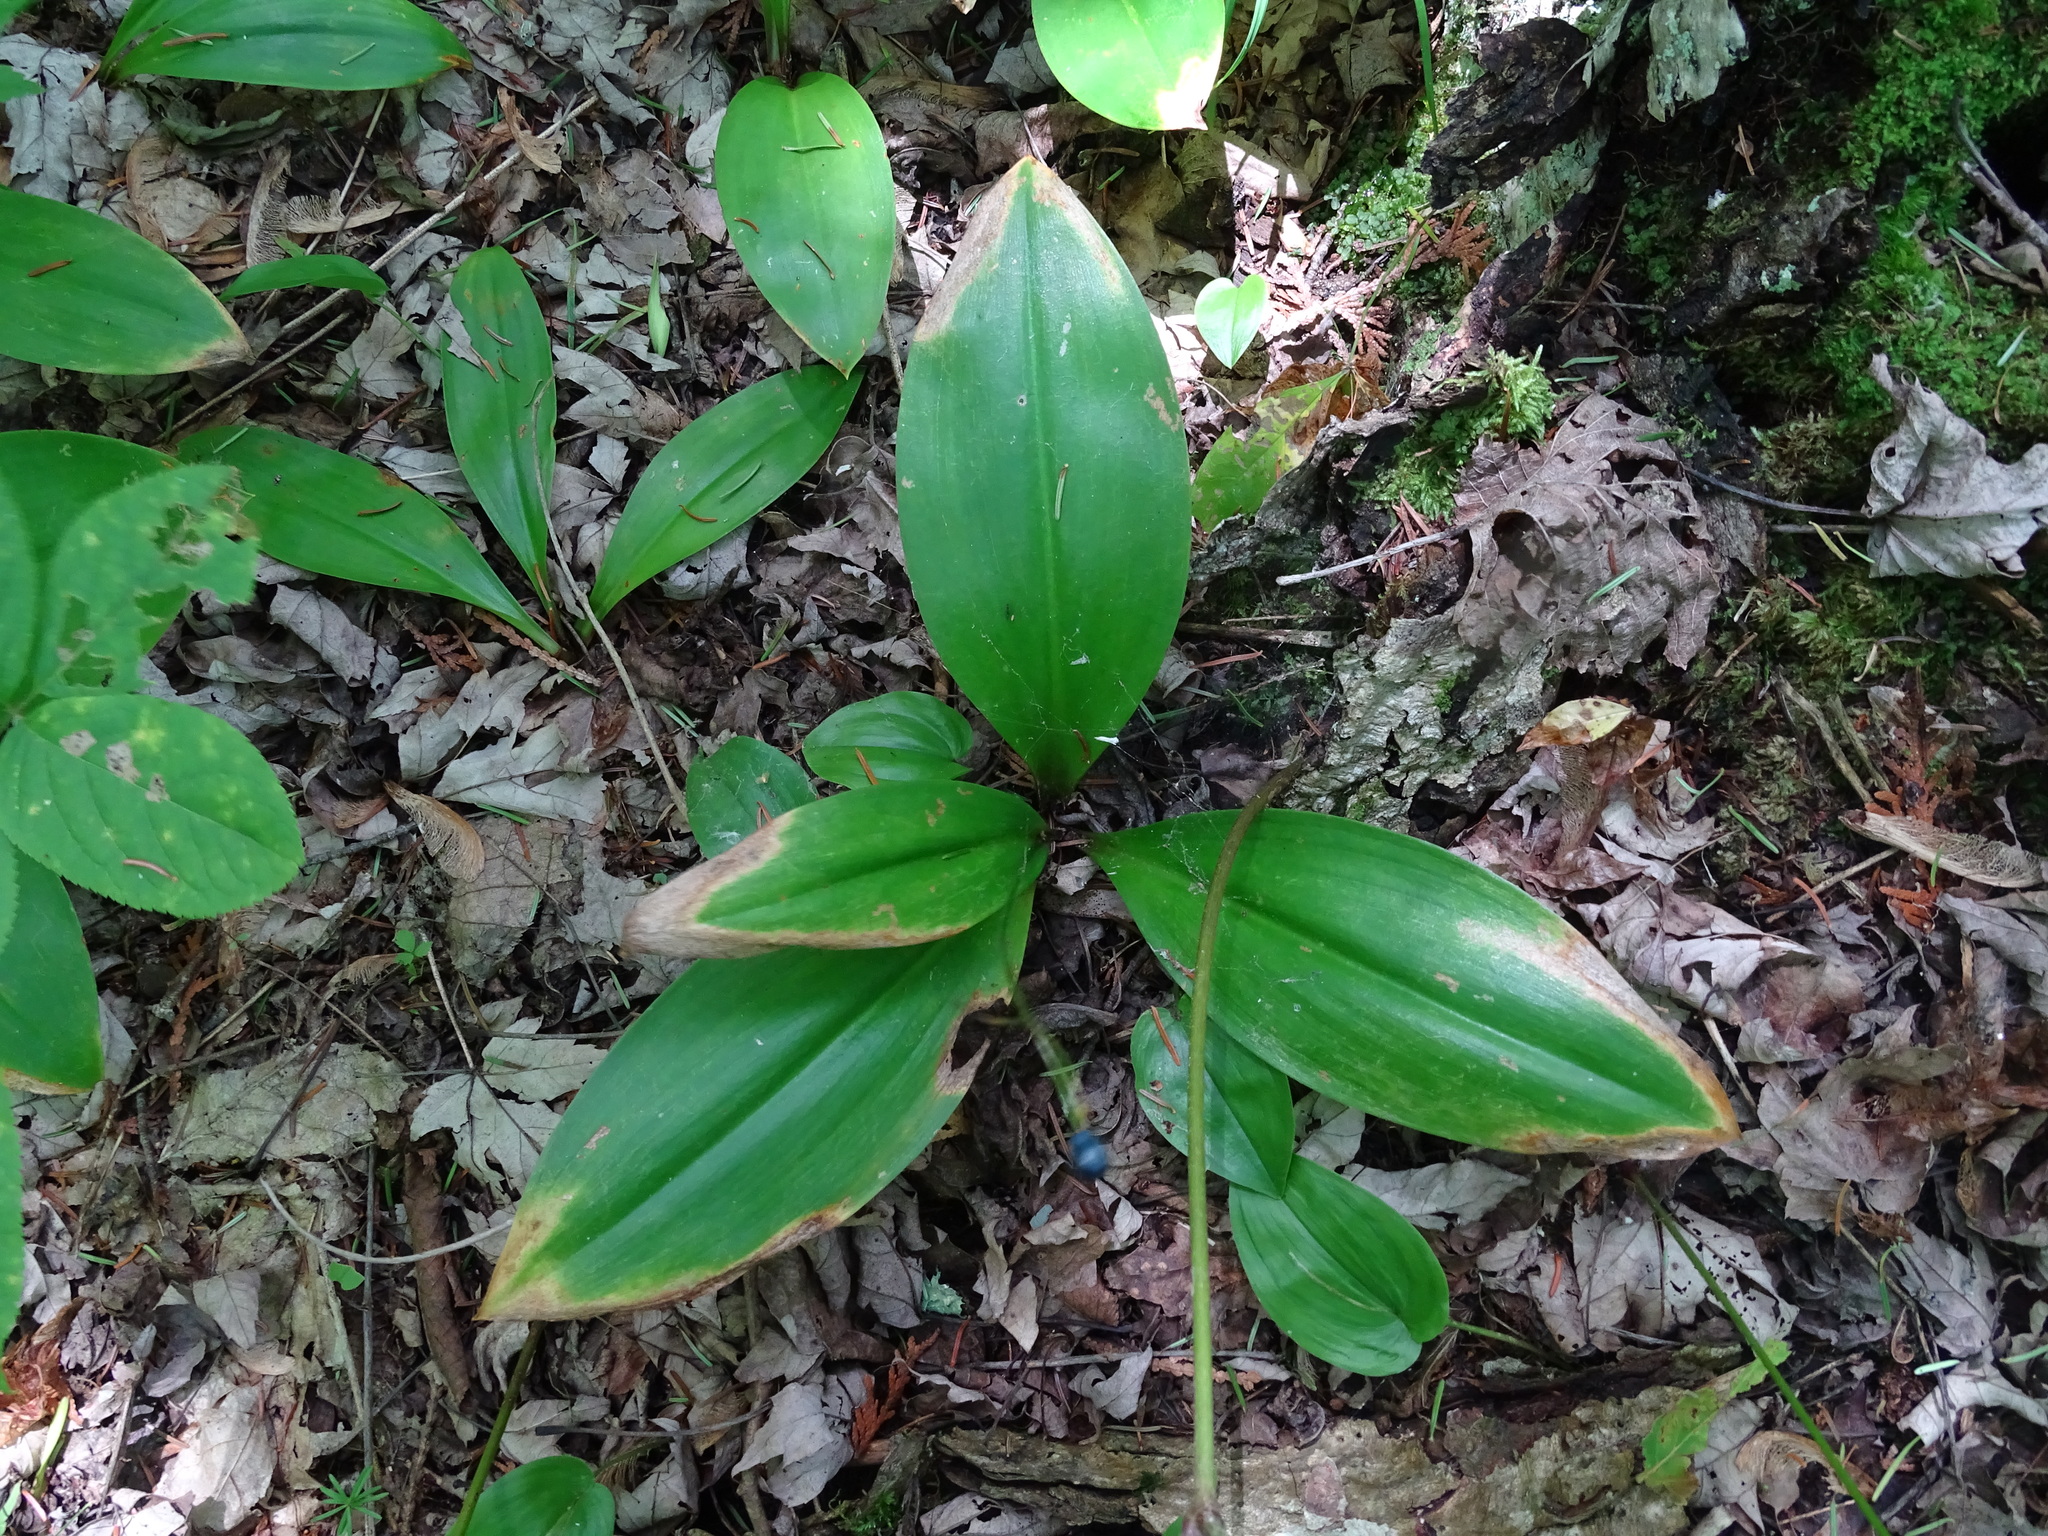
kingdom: Plantae
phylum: Tracheophyta
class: Liliopsida
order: Liliales
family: Liliaceae
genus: Clintonia
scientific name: Clintonia borealis
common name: Yellow clintonia
